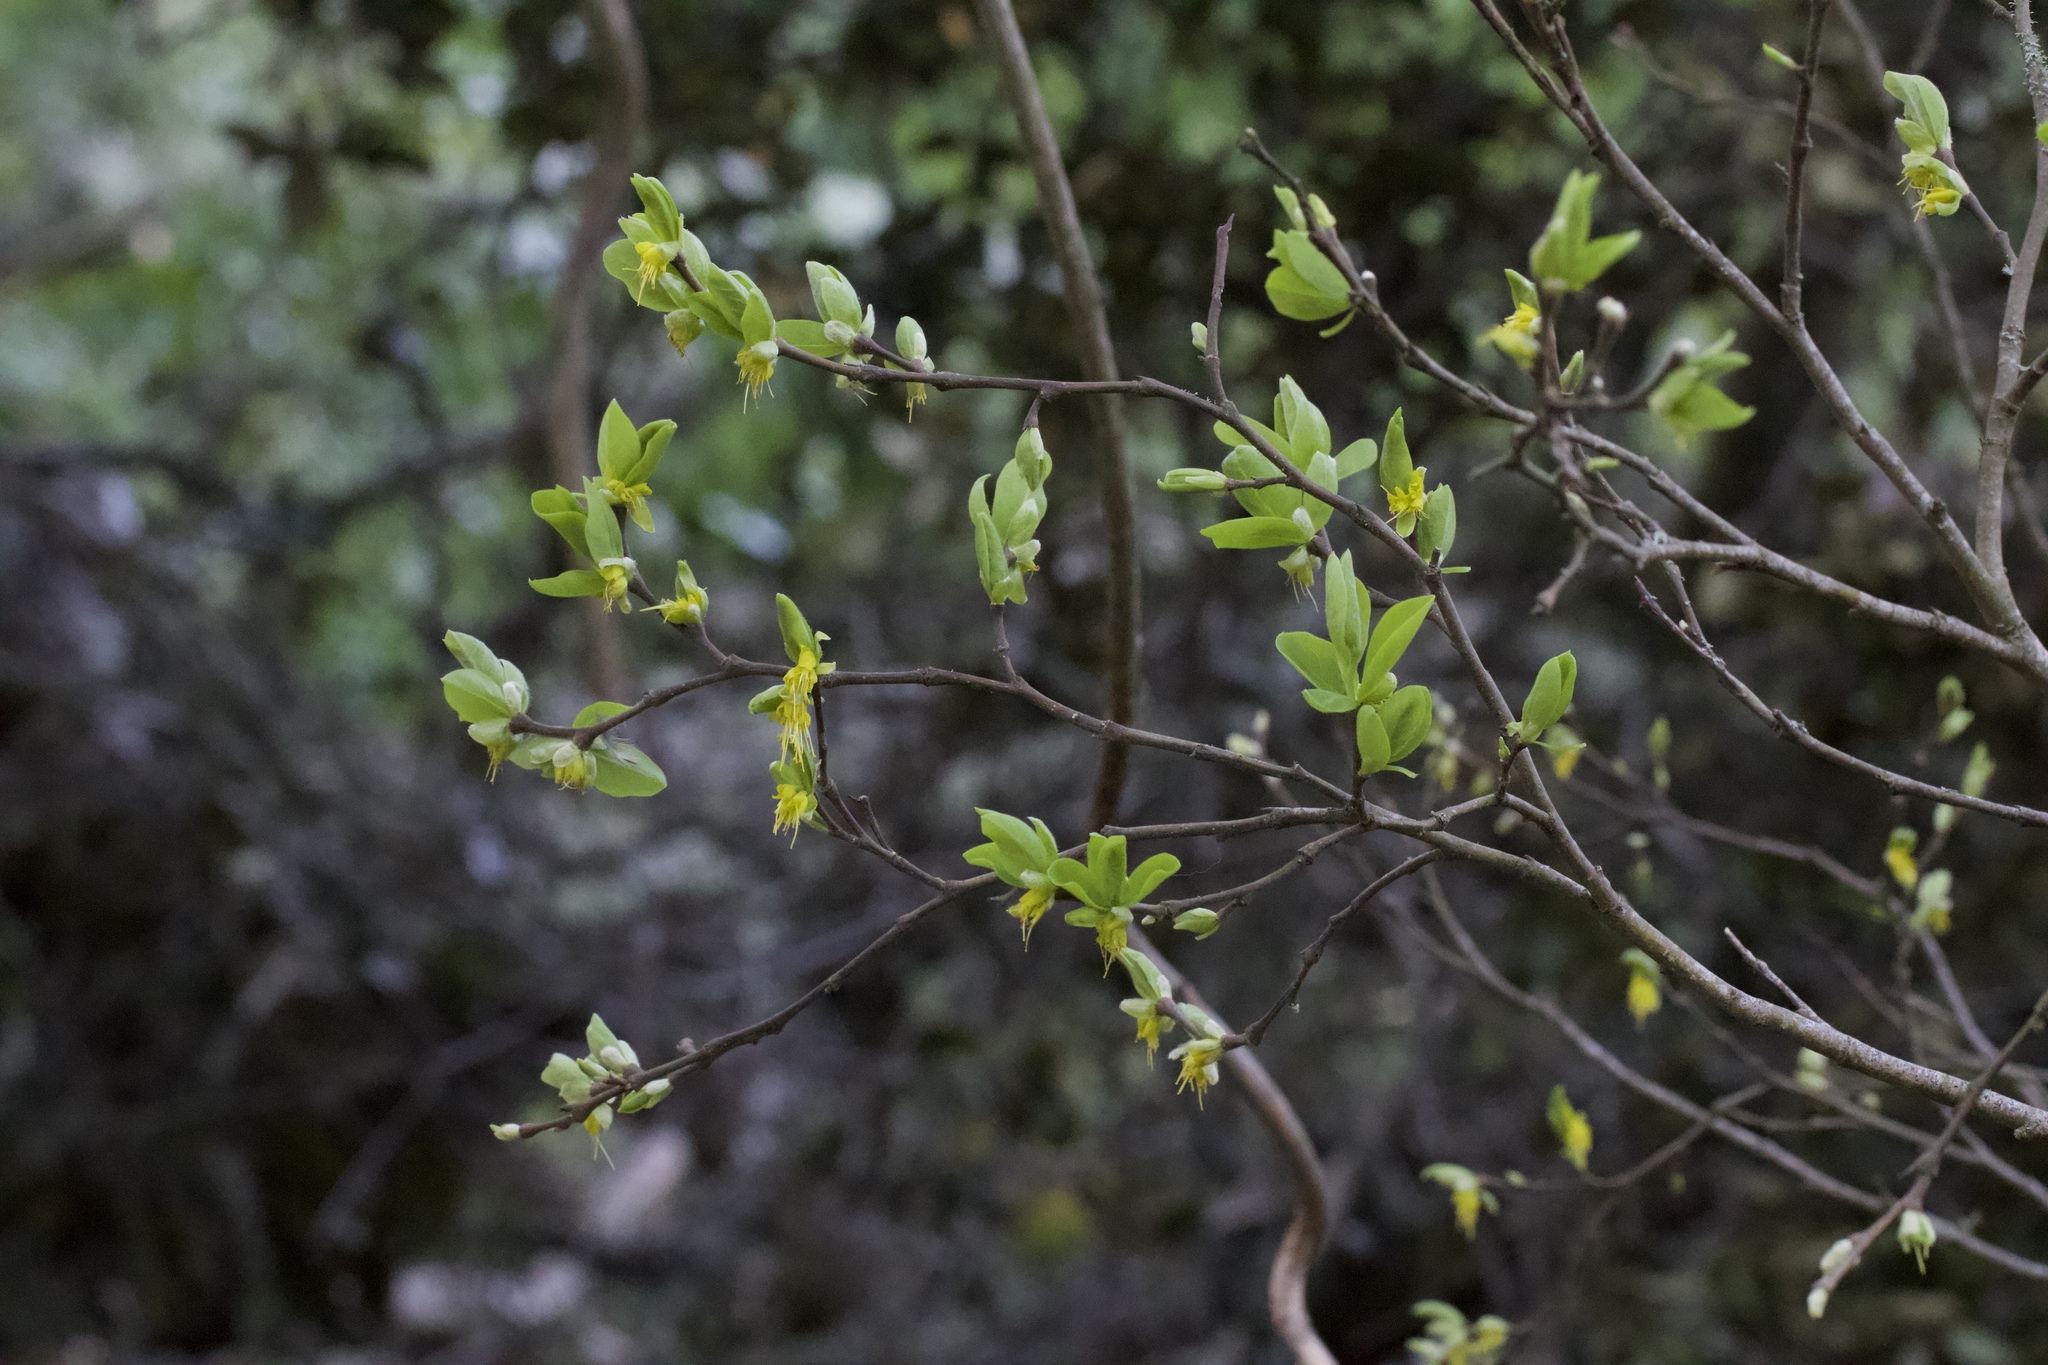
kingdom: Plantae
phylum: Tracheophyta
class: Magnoliopsida
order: Malvales
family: Thymelaeaceae
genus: Dirca
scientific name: Dirca occidentalis
